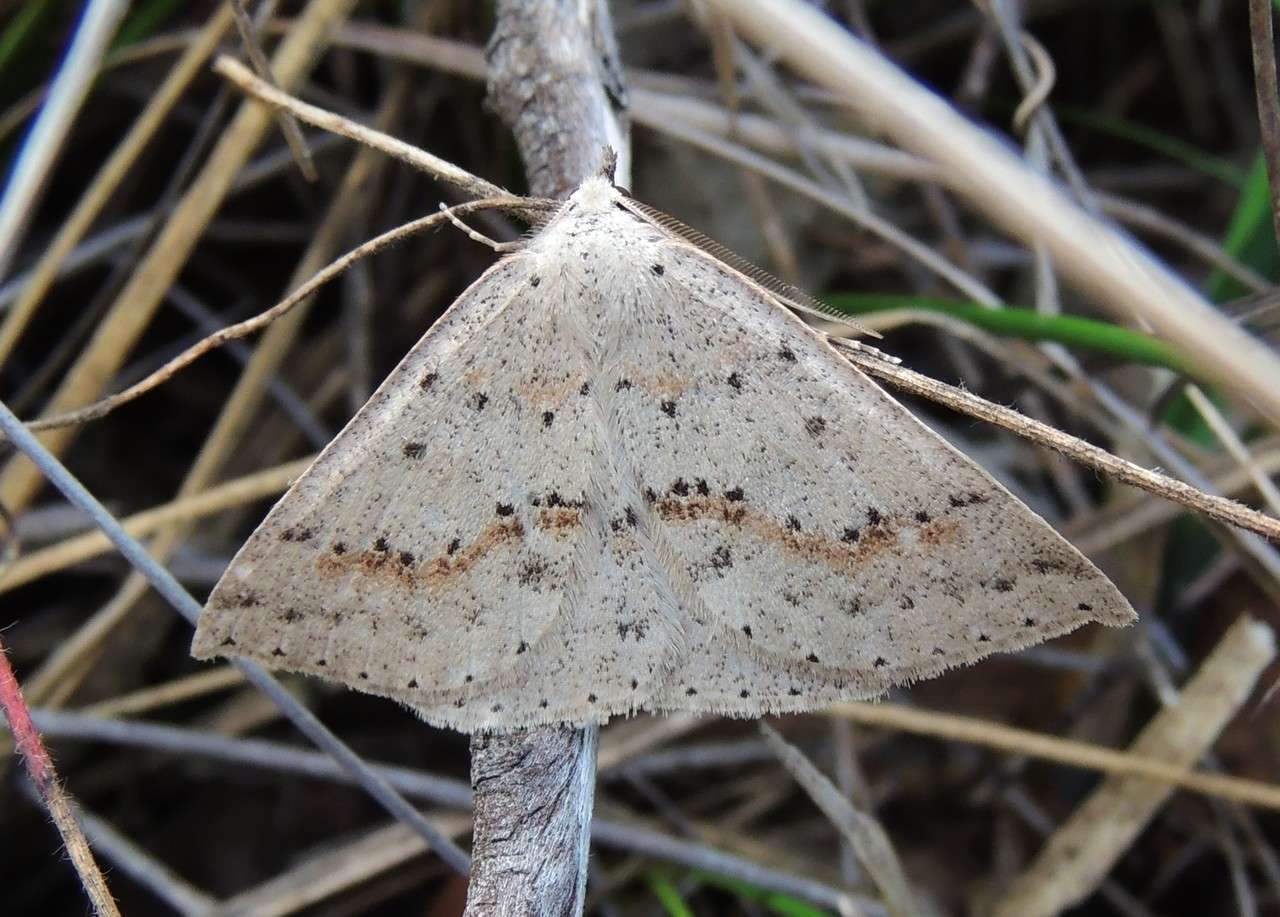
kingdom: Animalia
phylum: Arthropoda
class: Insecta
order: Lepidoptera
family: Geometridae
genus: Nearcha
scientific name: Nearcha ursaria
